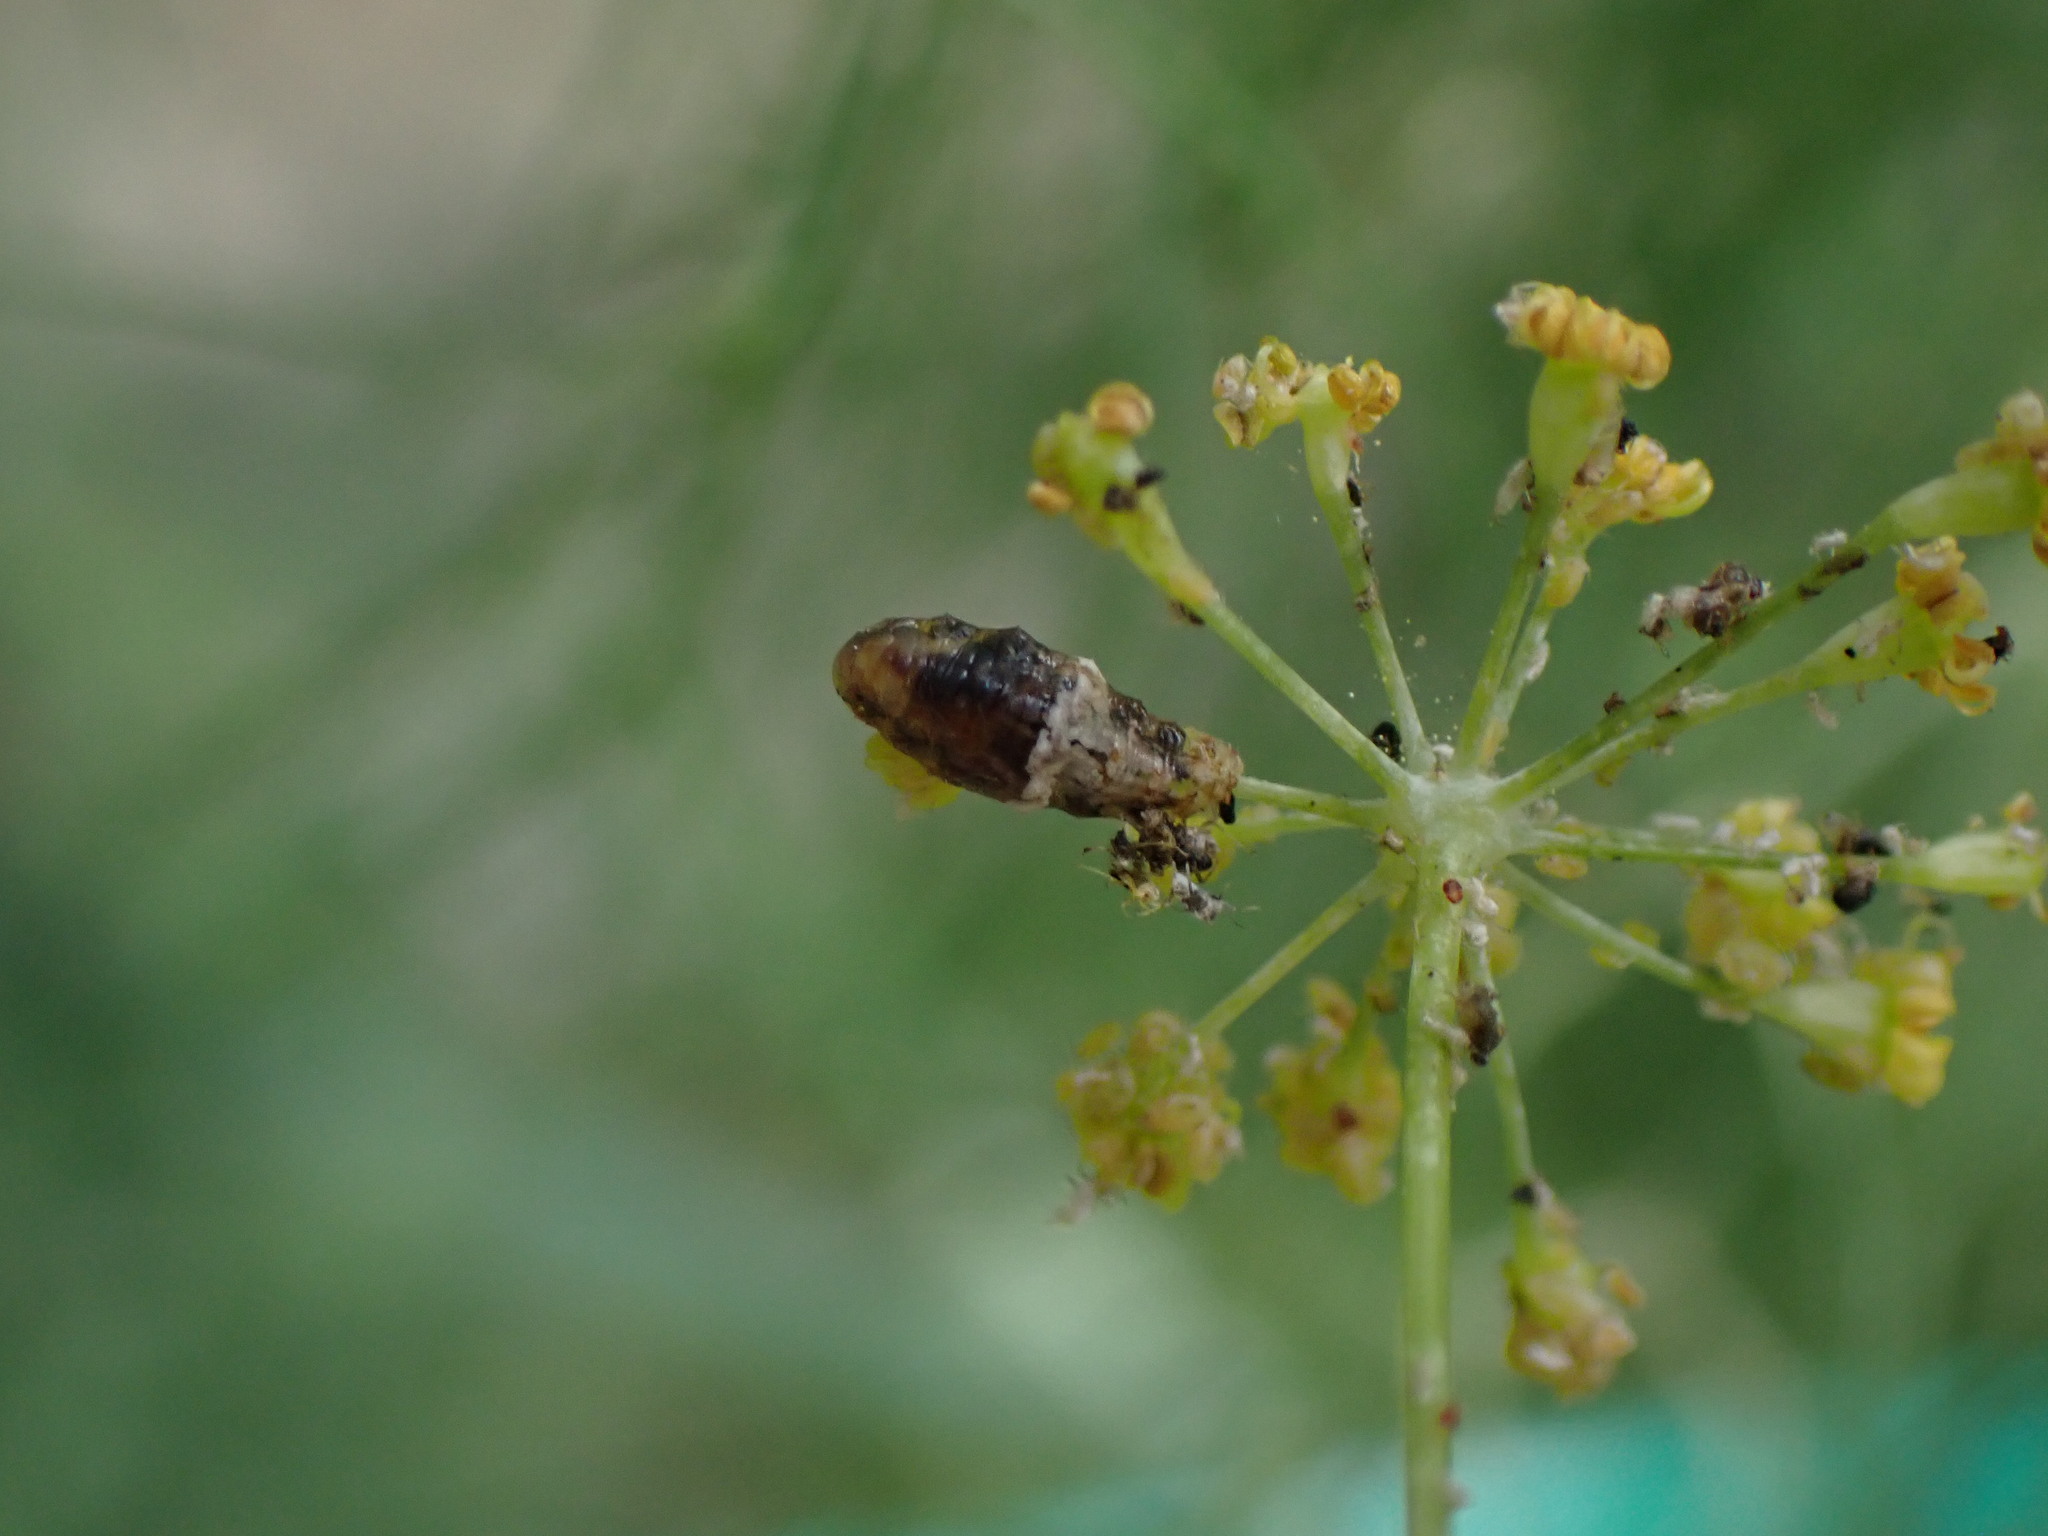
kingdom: Animalia
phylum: Arthropoda
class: Insecta
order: Diptera
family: Syrphidae
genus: Ocyptamus
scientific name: Ocyptamus fuscipennis
